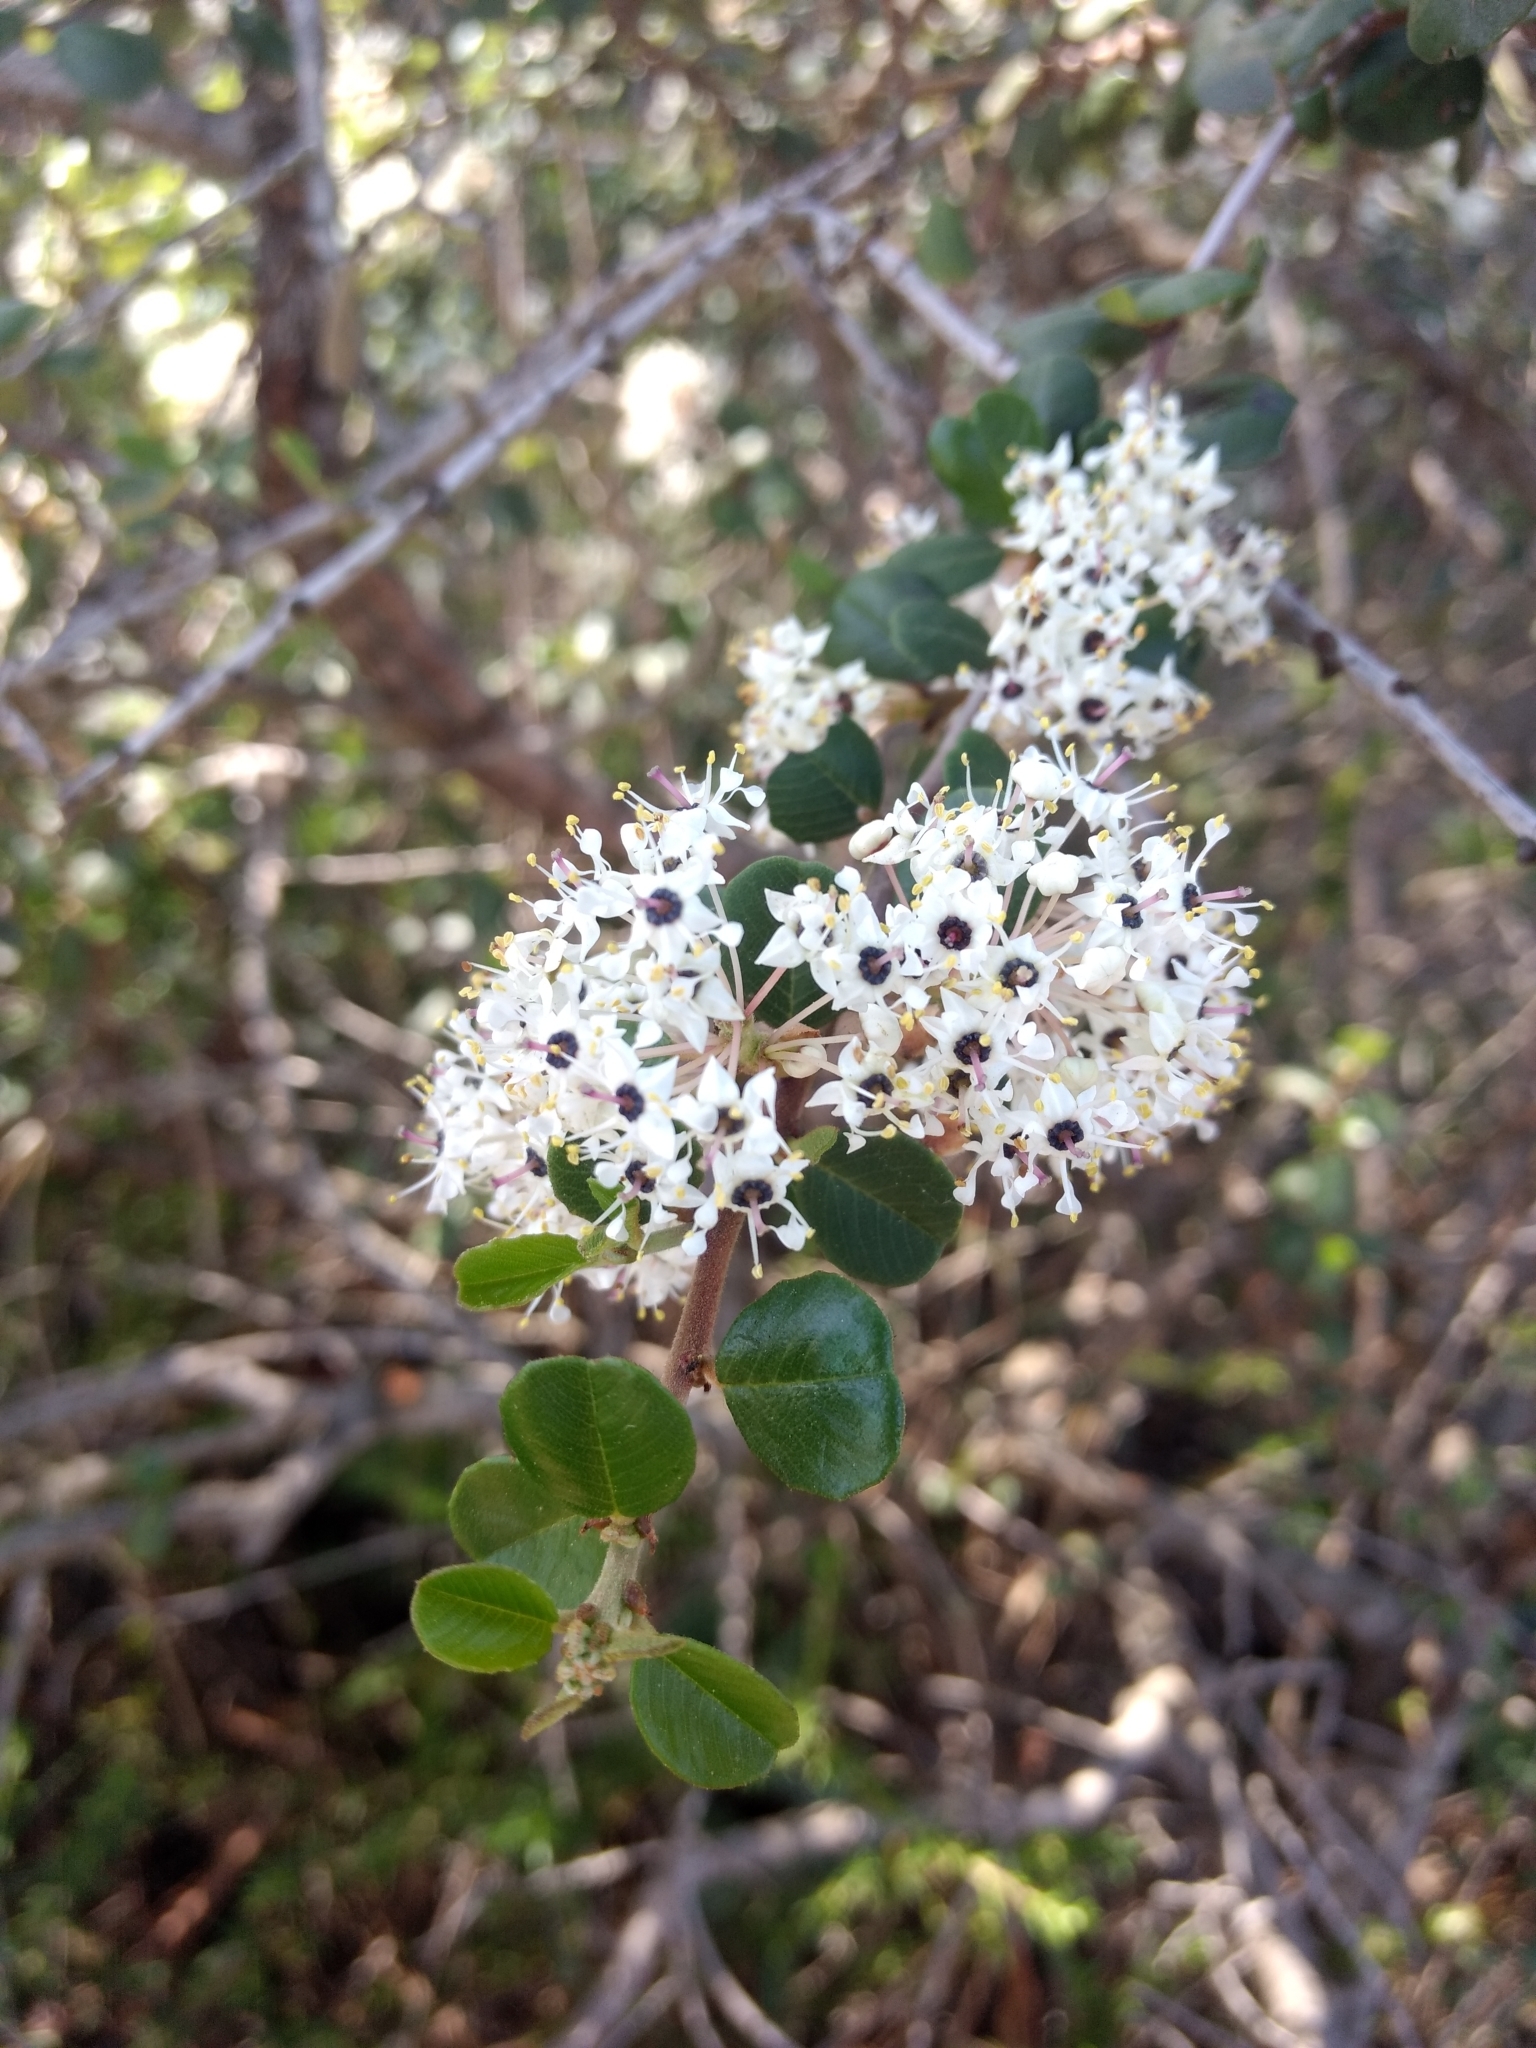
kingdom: Plantae
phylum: Tracheophyta
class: Magnoliopsida
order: Rosales
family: Rhamnaceae
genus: Ceanothus
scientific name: Ceanothus verrucosus
